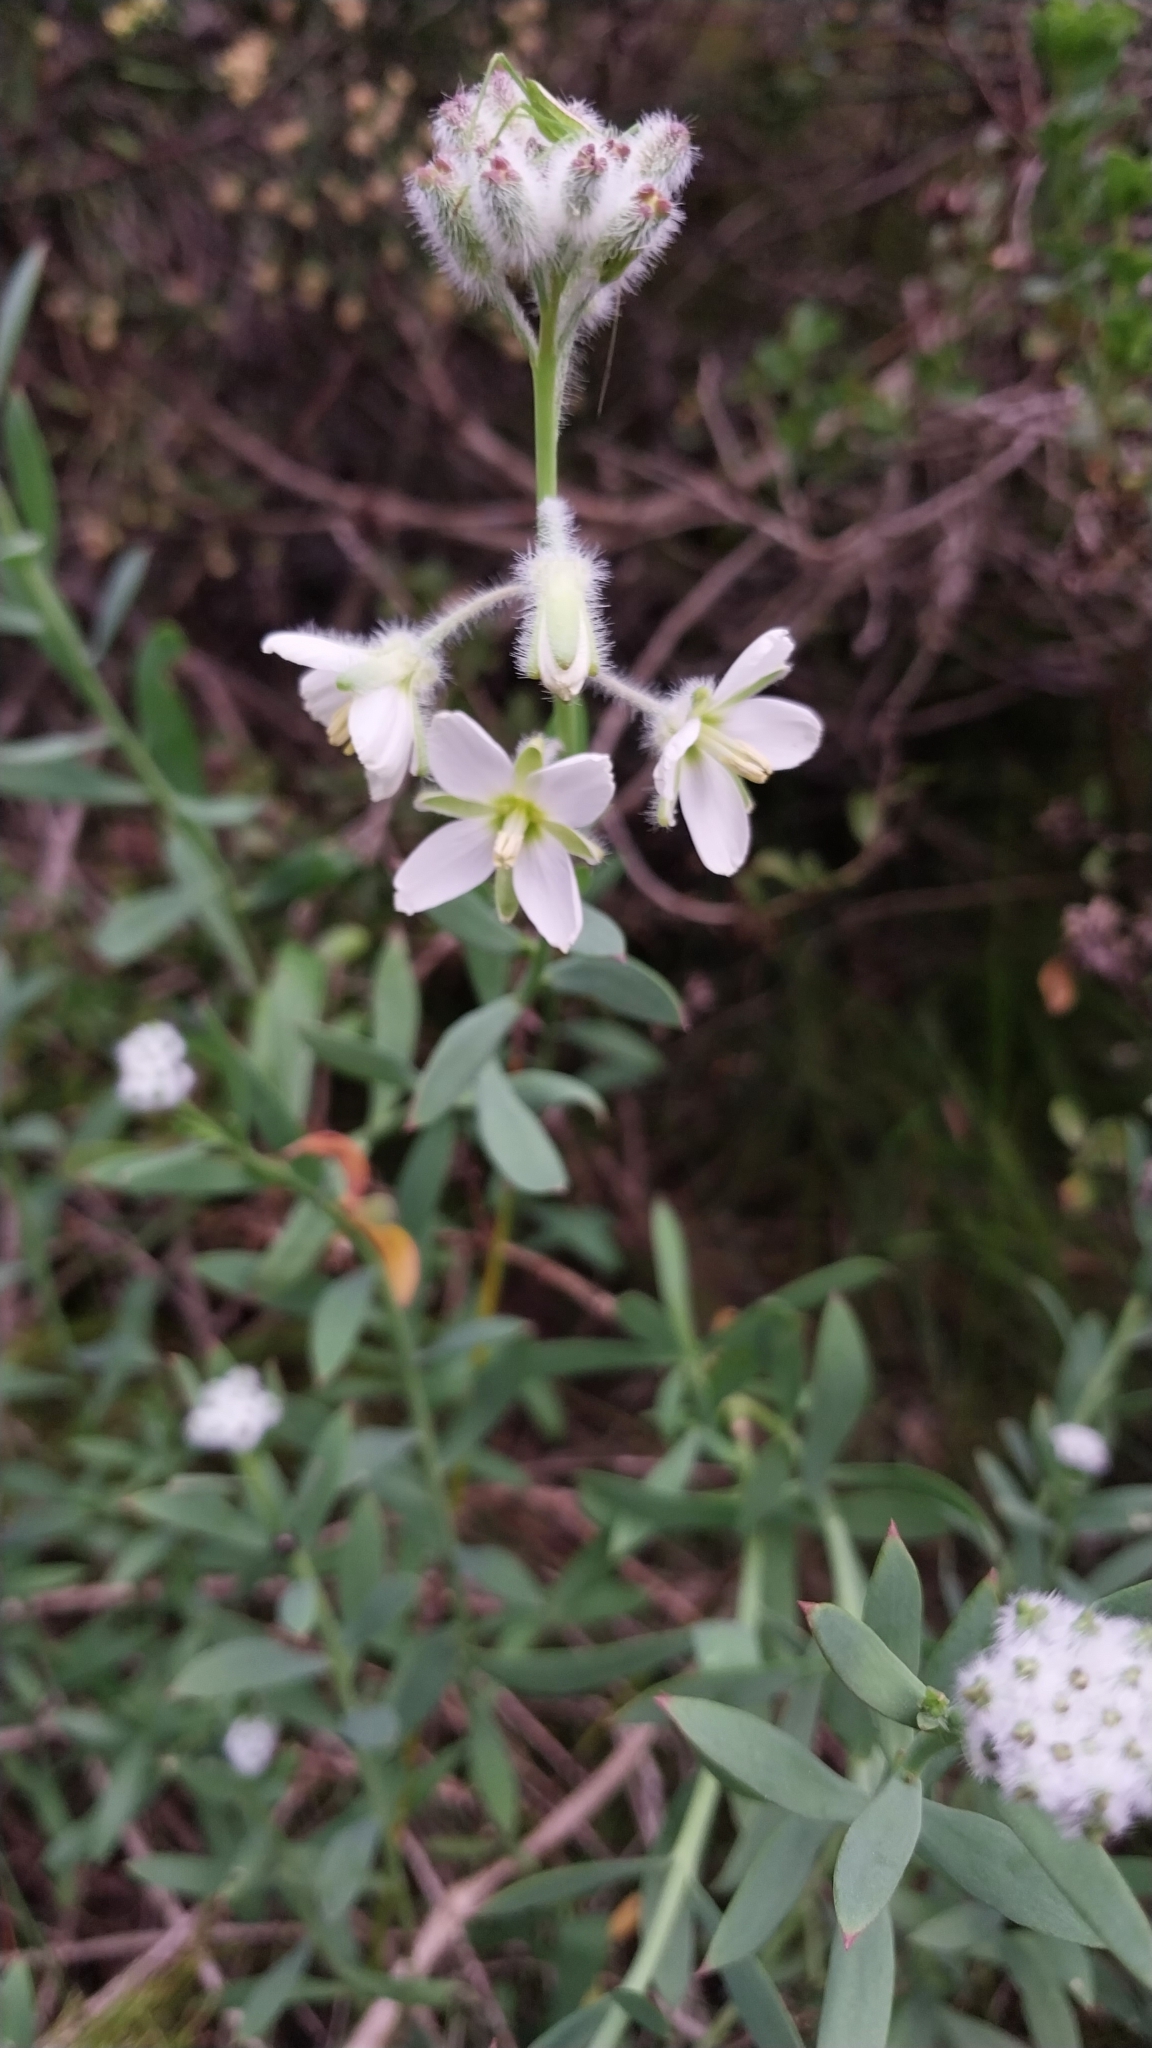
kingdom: Plantae
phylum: Tracheophyta
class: Magnoliopsida
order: Brassicales
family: Brassicaceae
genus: Heliophila
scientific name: Heliophila linearis
